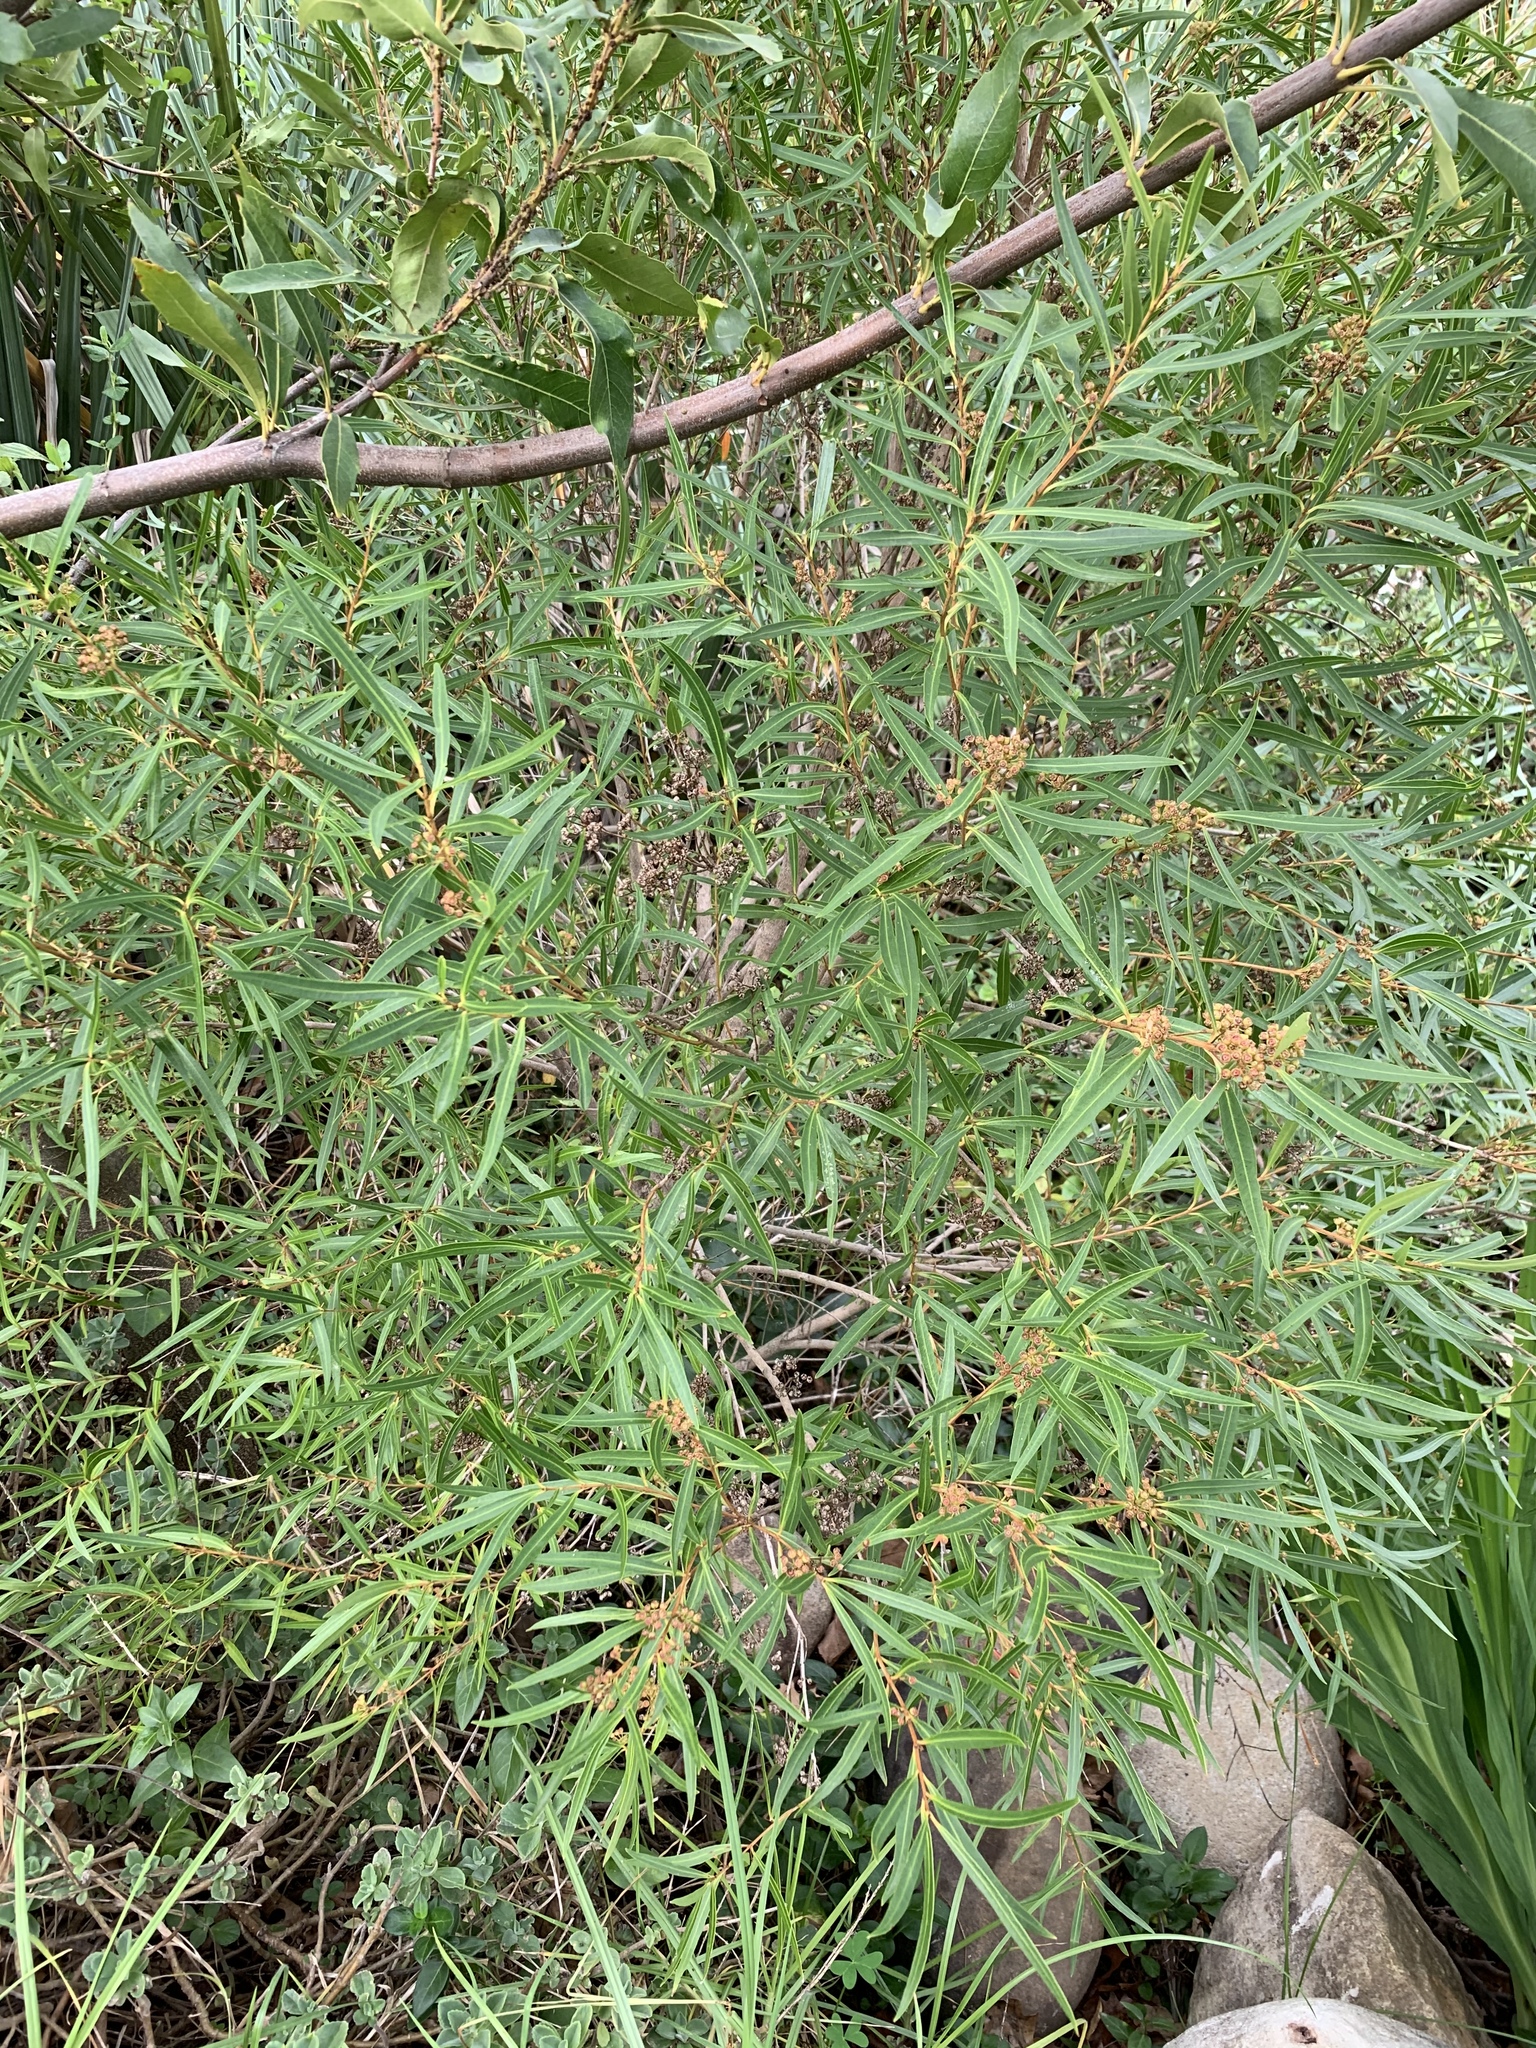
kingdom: Plantae
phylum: Tracheophyta
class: Magnoliopsida
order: Myrtales
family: Myrtaceae
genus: Callistemon
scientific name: Callistemon lanceolatus
